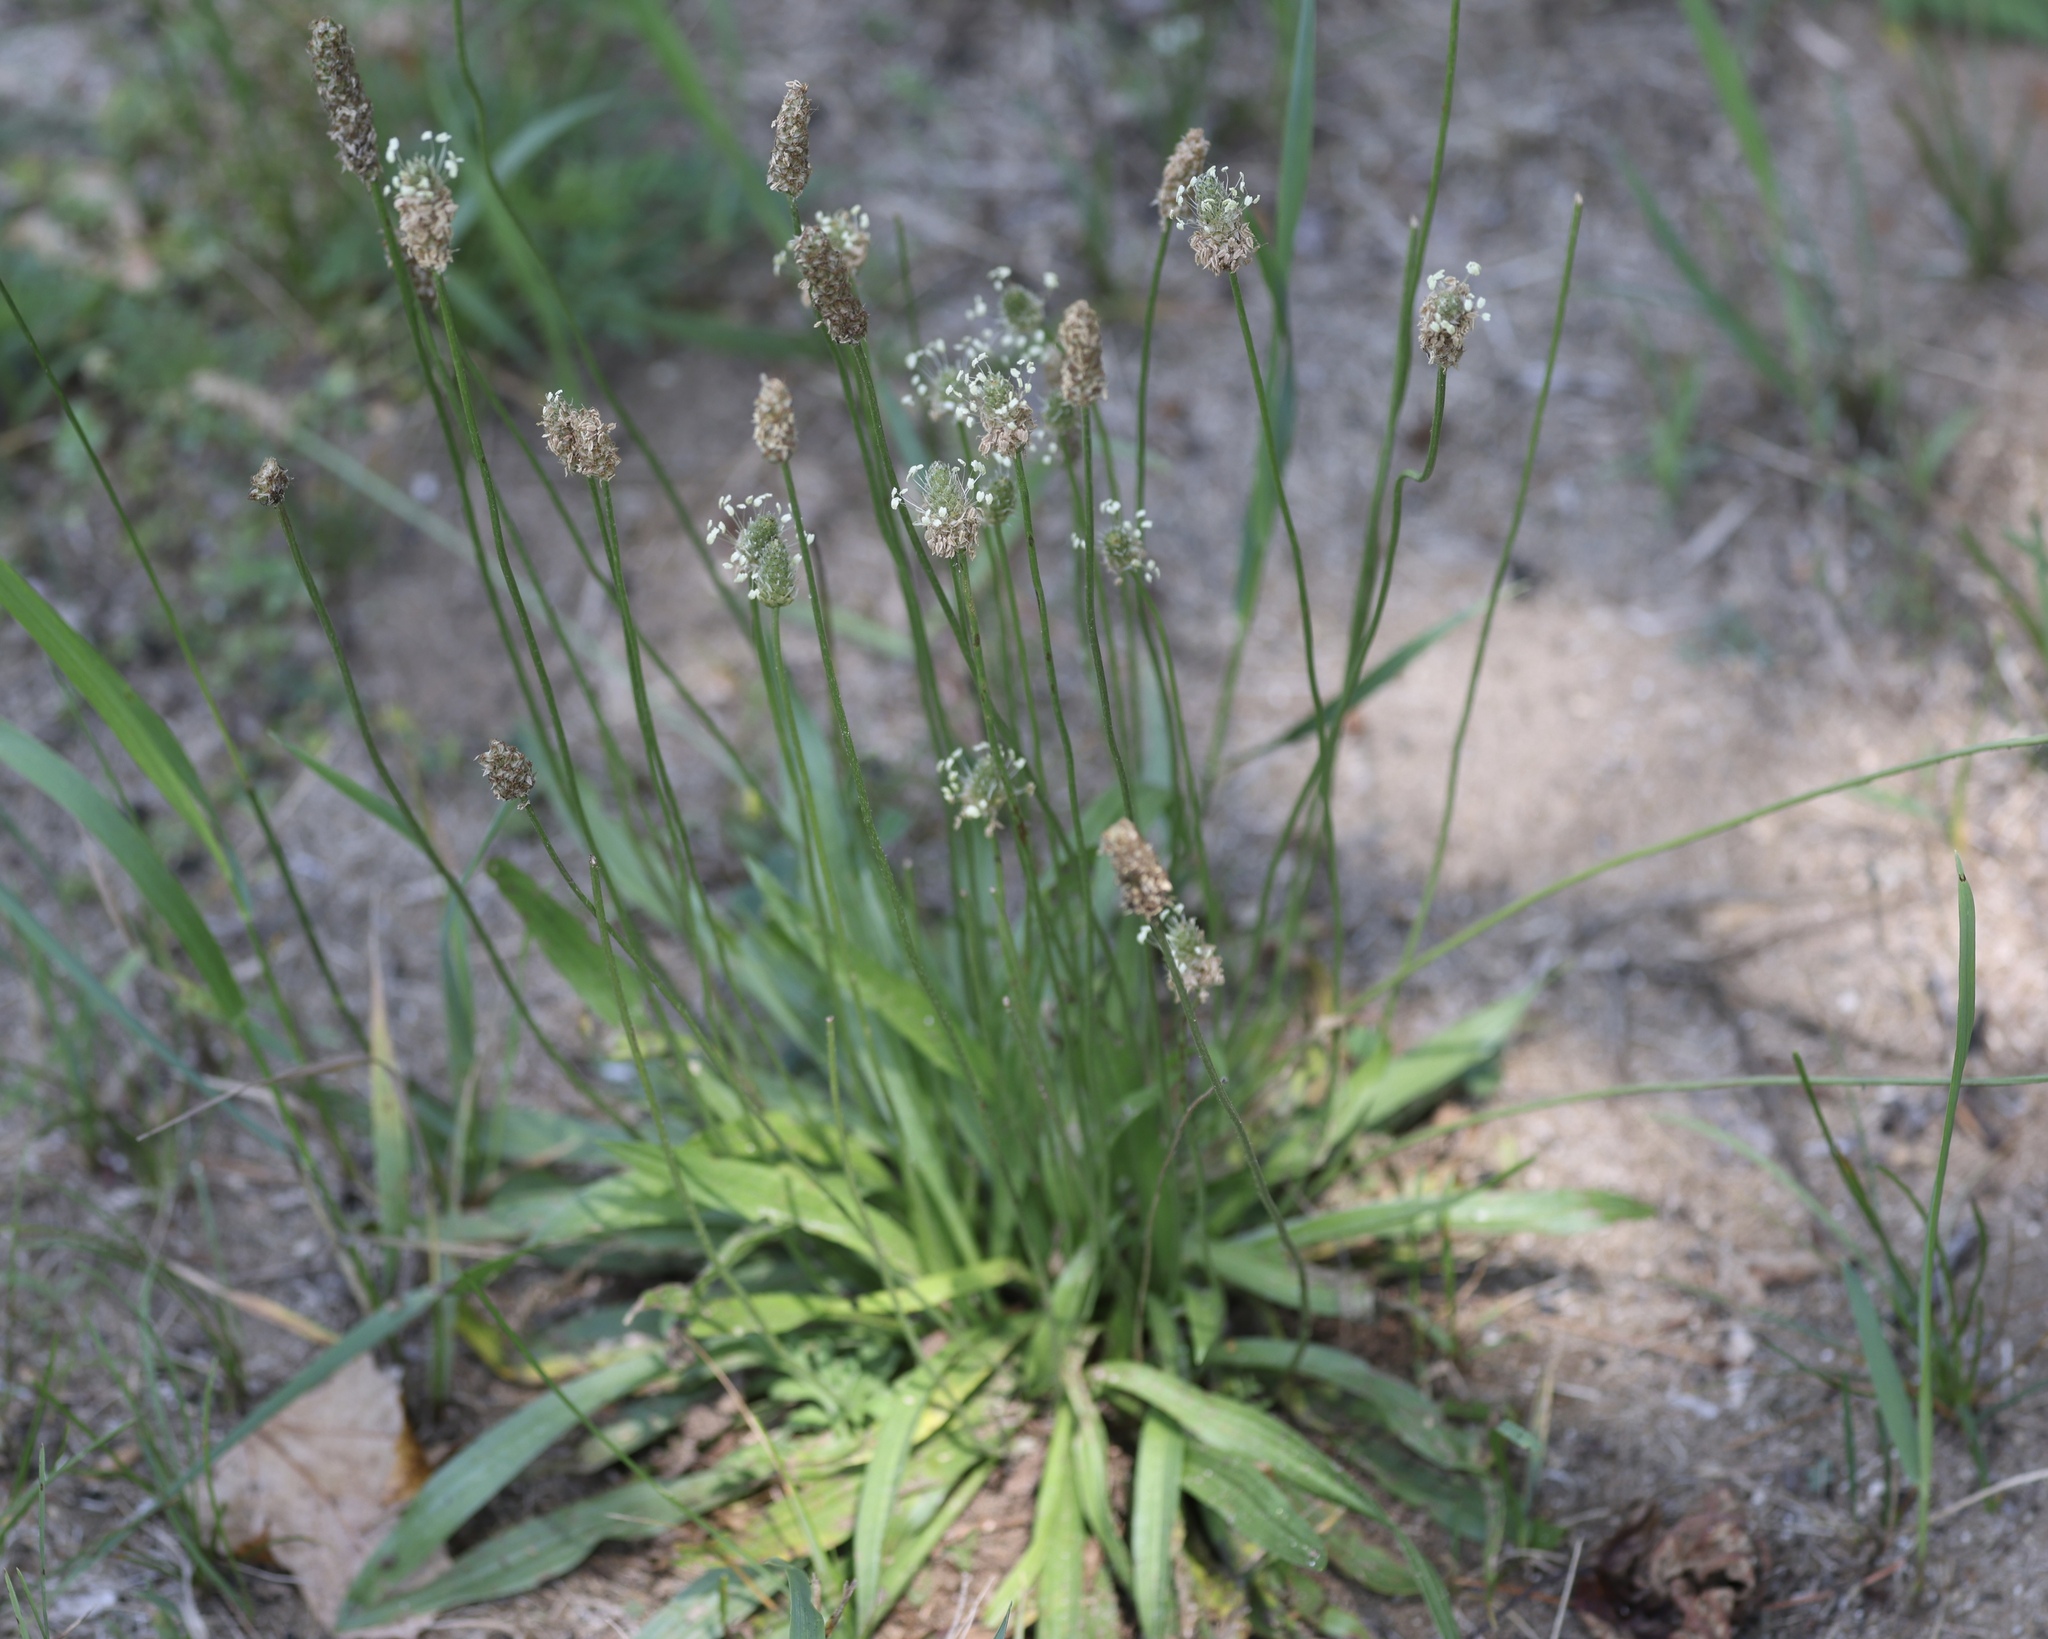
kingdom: Plantae
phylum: Tracheophyta
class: Magnoliopsida
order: Lamiales
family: Plantaginaceae
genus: Plantago
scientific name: Plantago lanceolata
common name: Ribwort plantain
